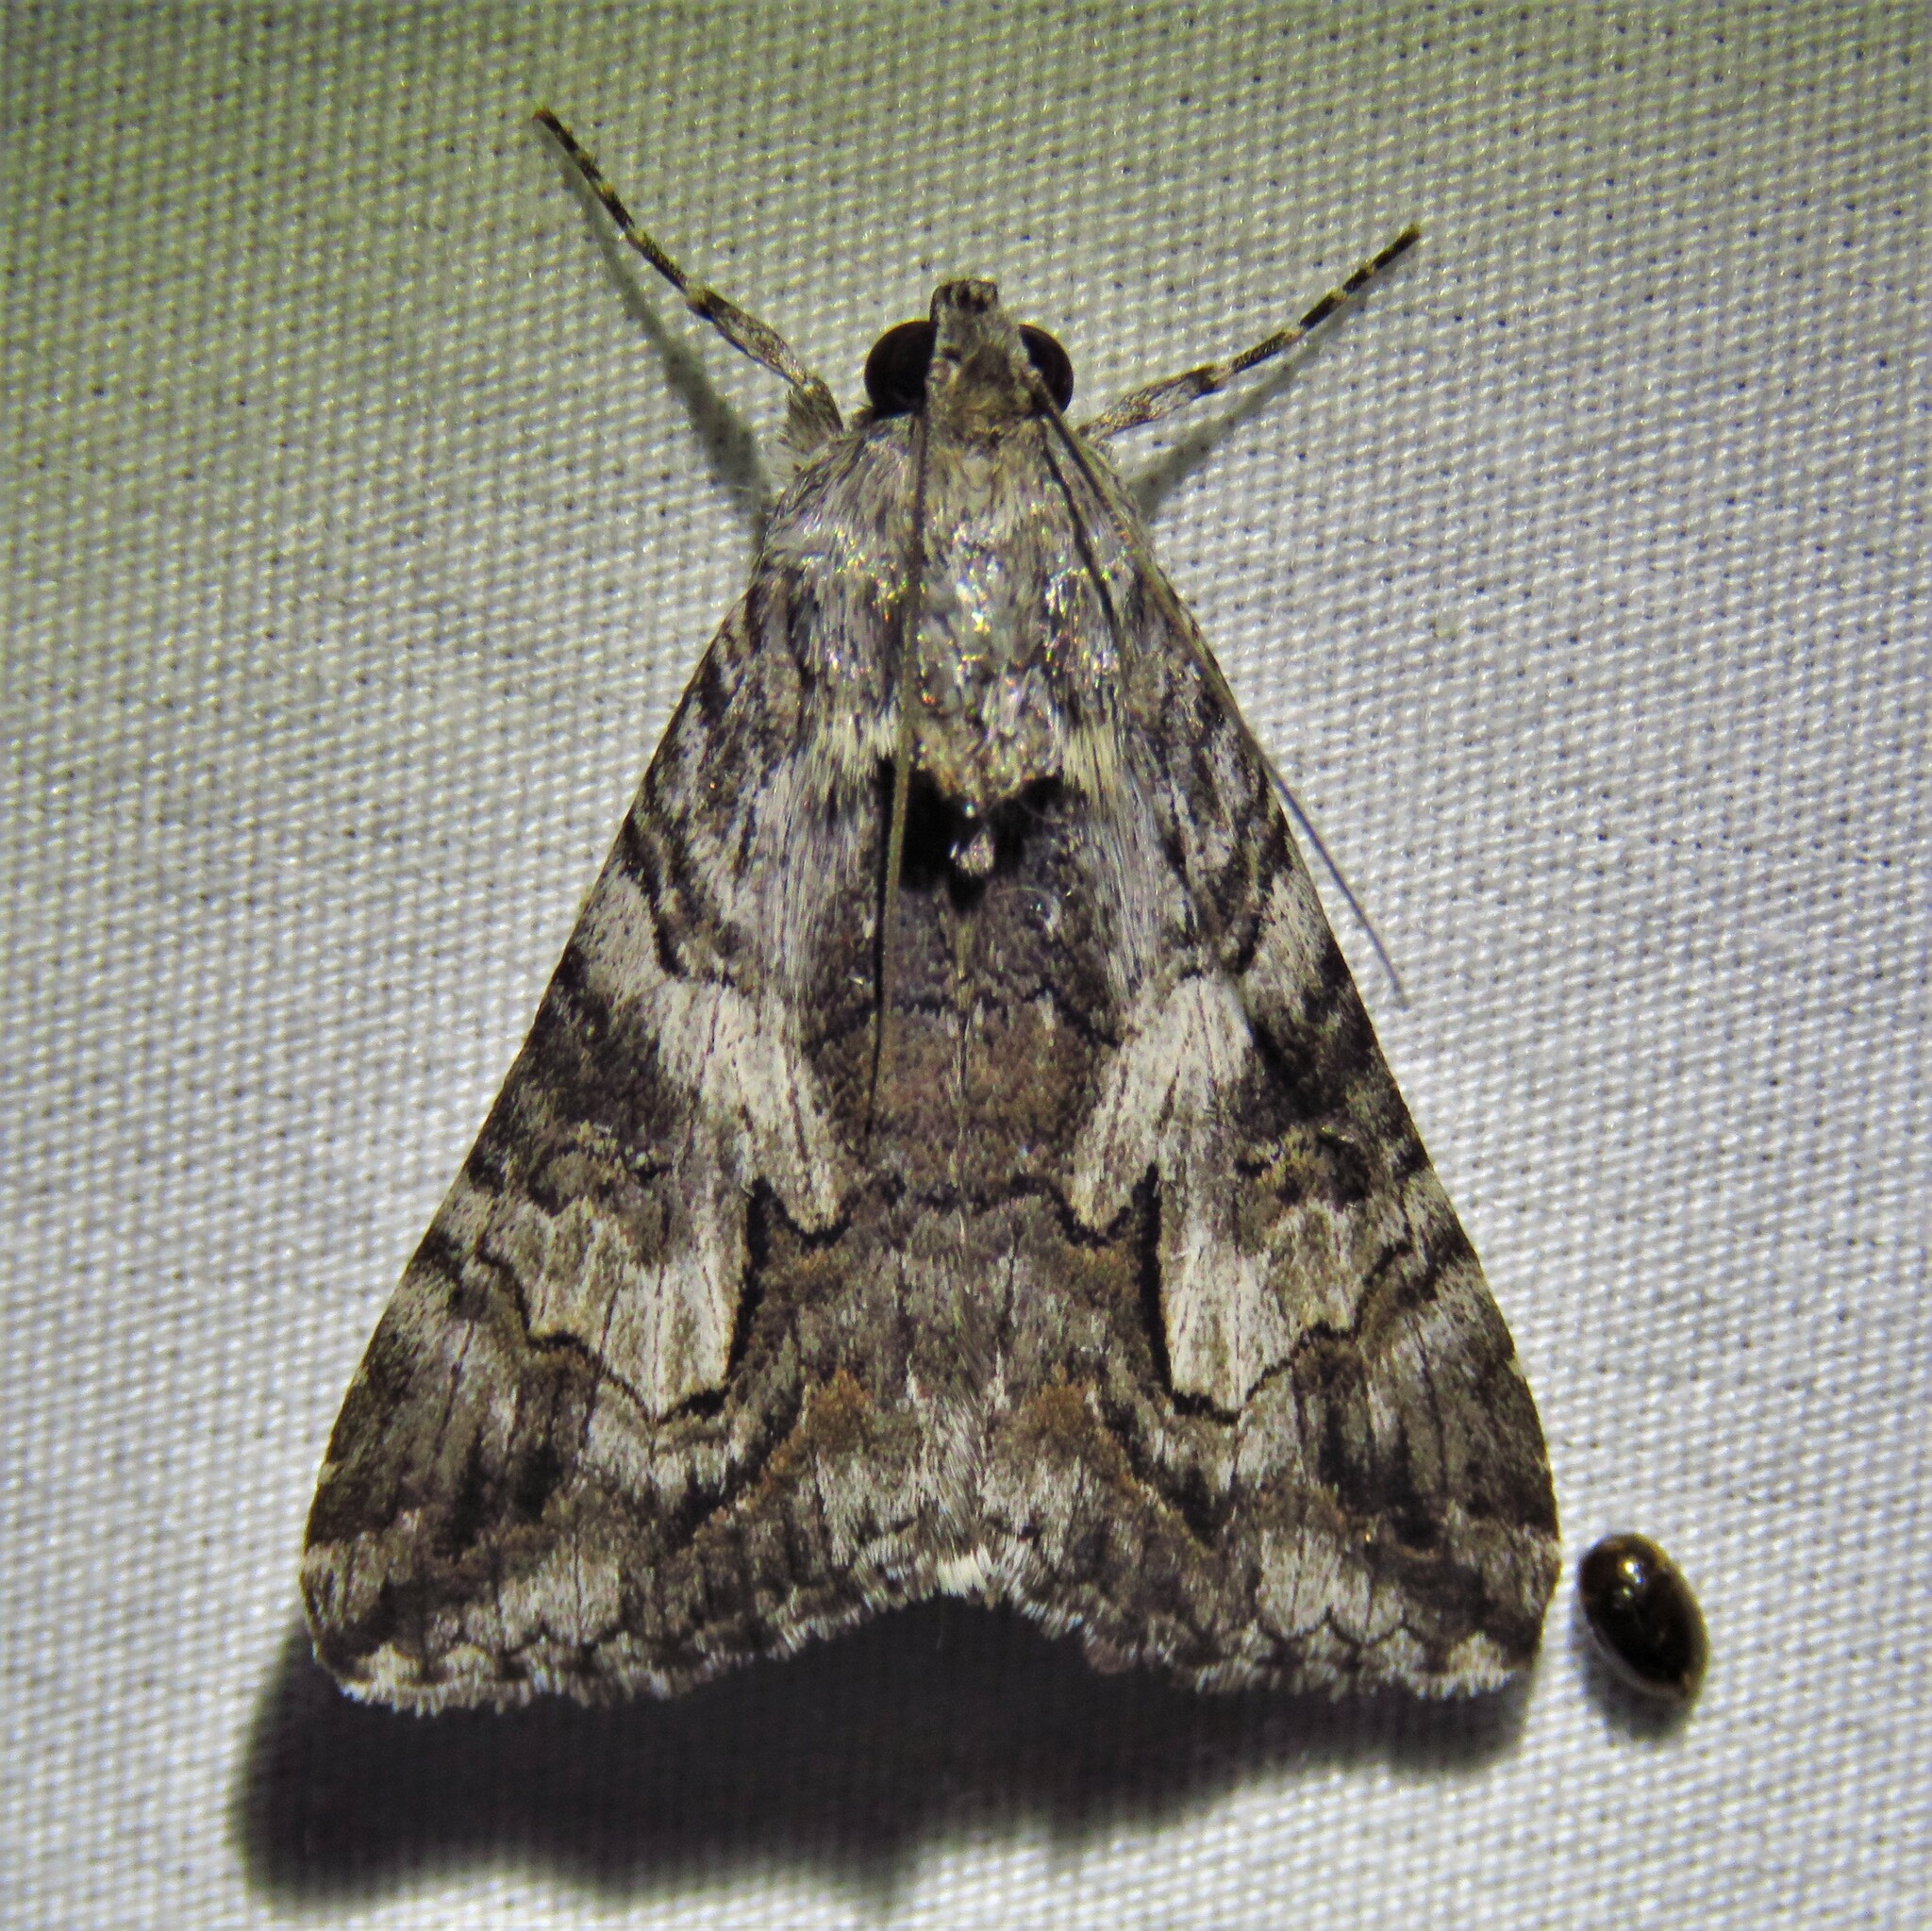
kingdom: Animalia
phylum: Arthropoda
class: Insecta
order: Lepidoptera
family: Erebidae
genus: Melipotis
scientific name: Melipotis jucunda
